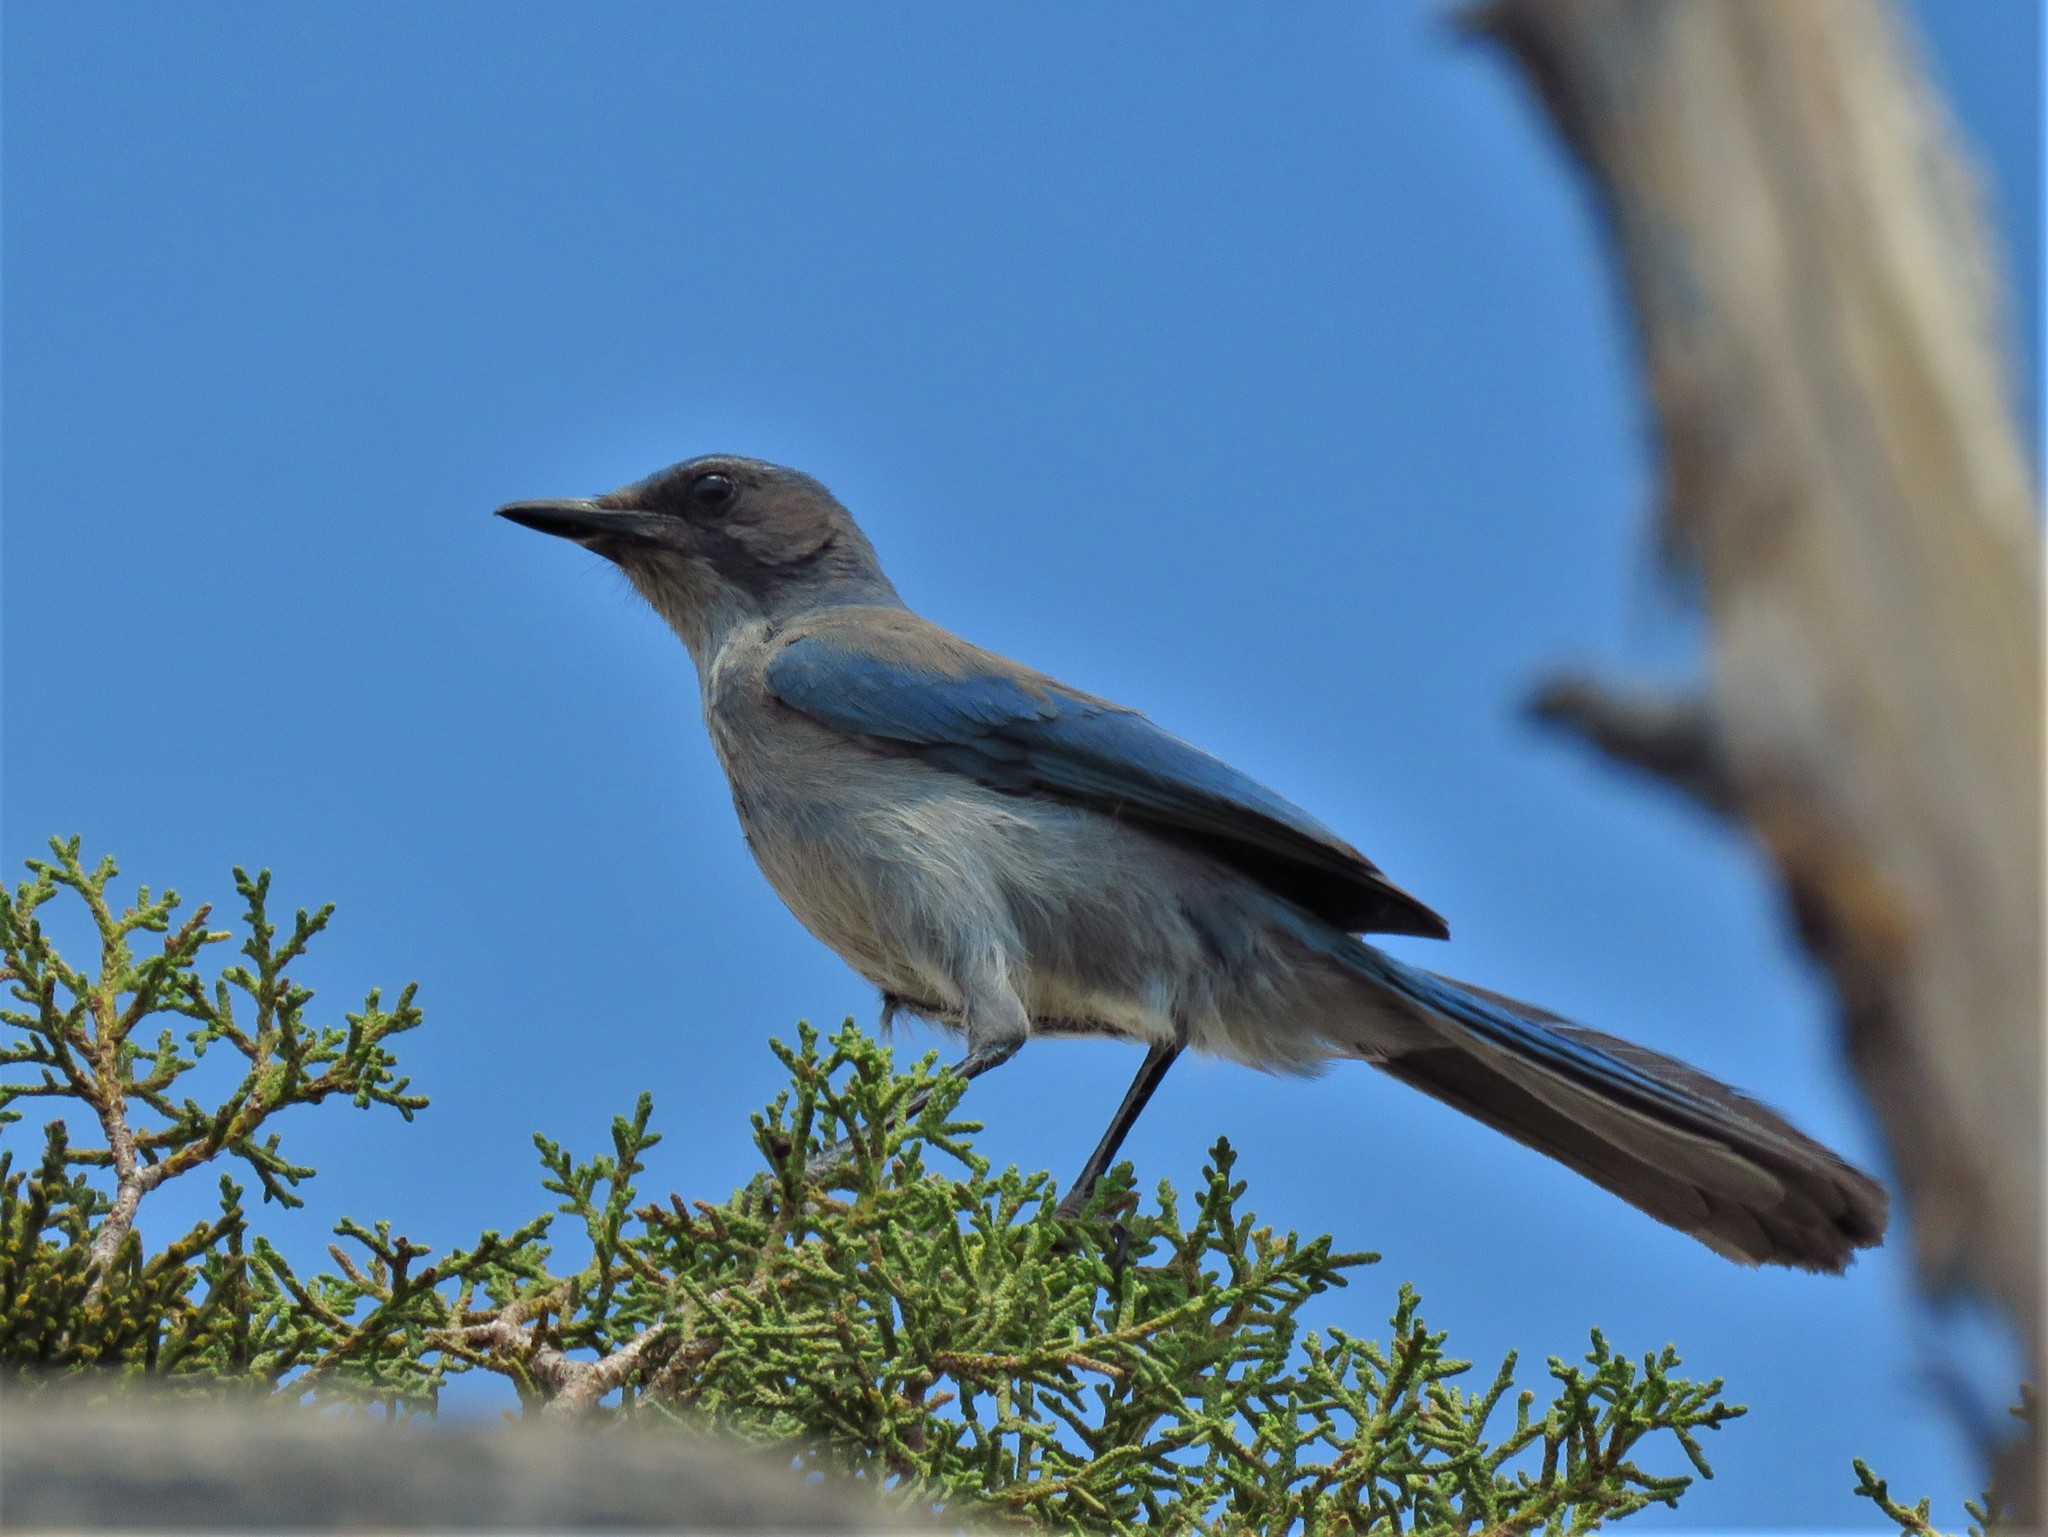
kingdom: Animalia
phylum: Chordata
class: Aves
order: Passeriformes
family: Corvidae
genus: Aphelocoma
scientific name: Aphelocoma woodhouseii
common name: Woodhouse's scrub-jay
